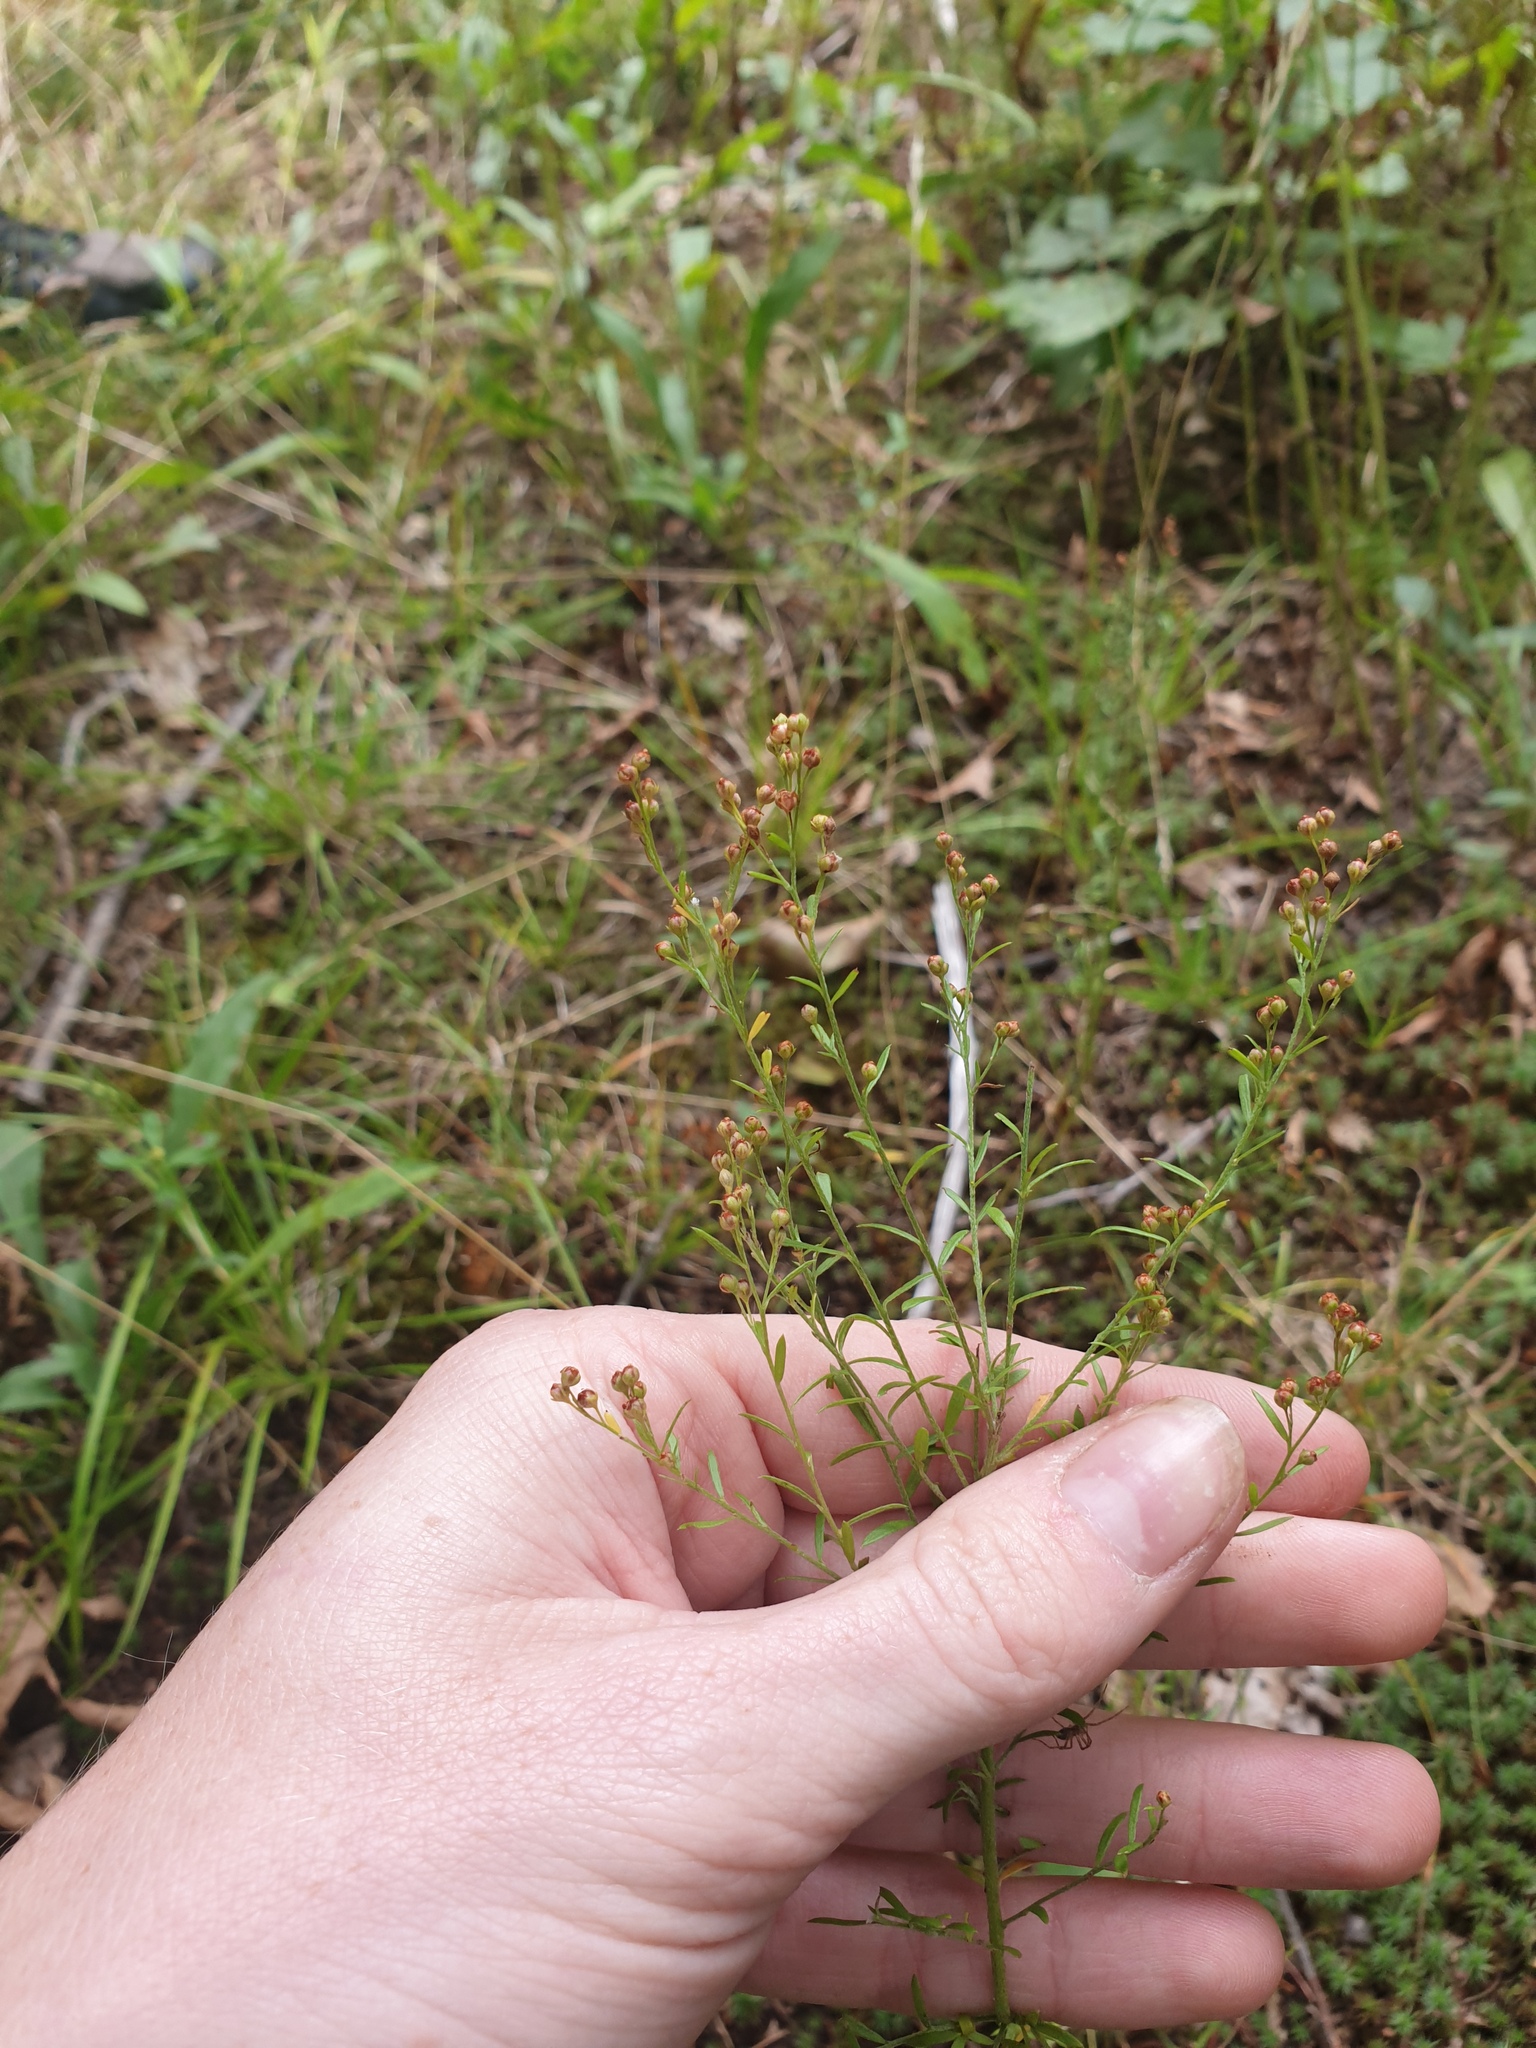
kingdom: Plantae
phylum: Tracheophyta
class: Magnoliopsida
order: Malvales
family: Cistaceae
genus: Lechea
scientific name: Lechea intermedia
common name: Intermediate pinweed
